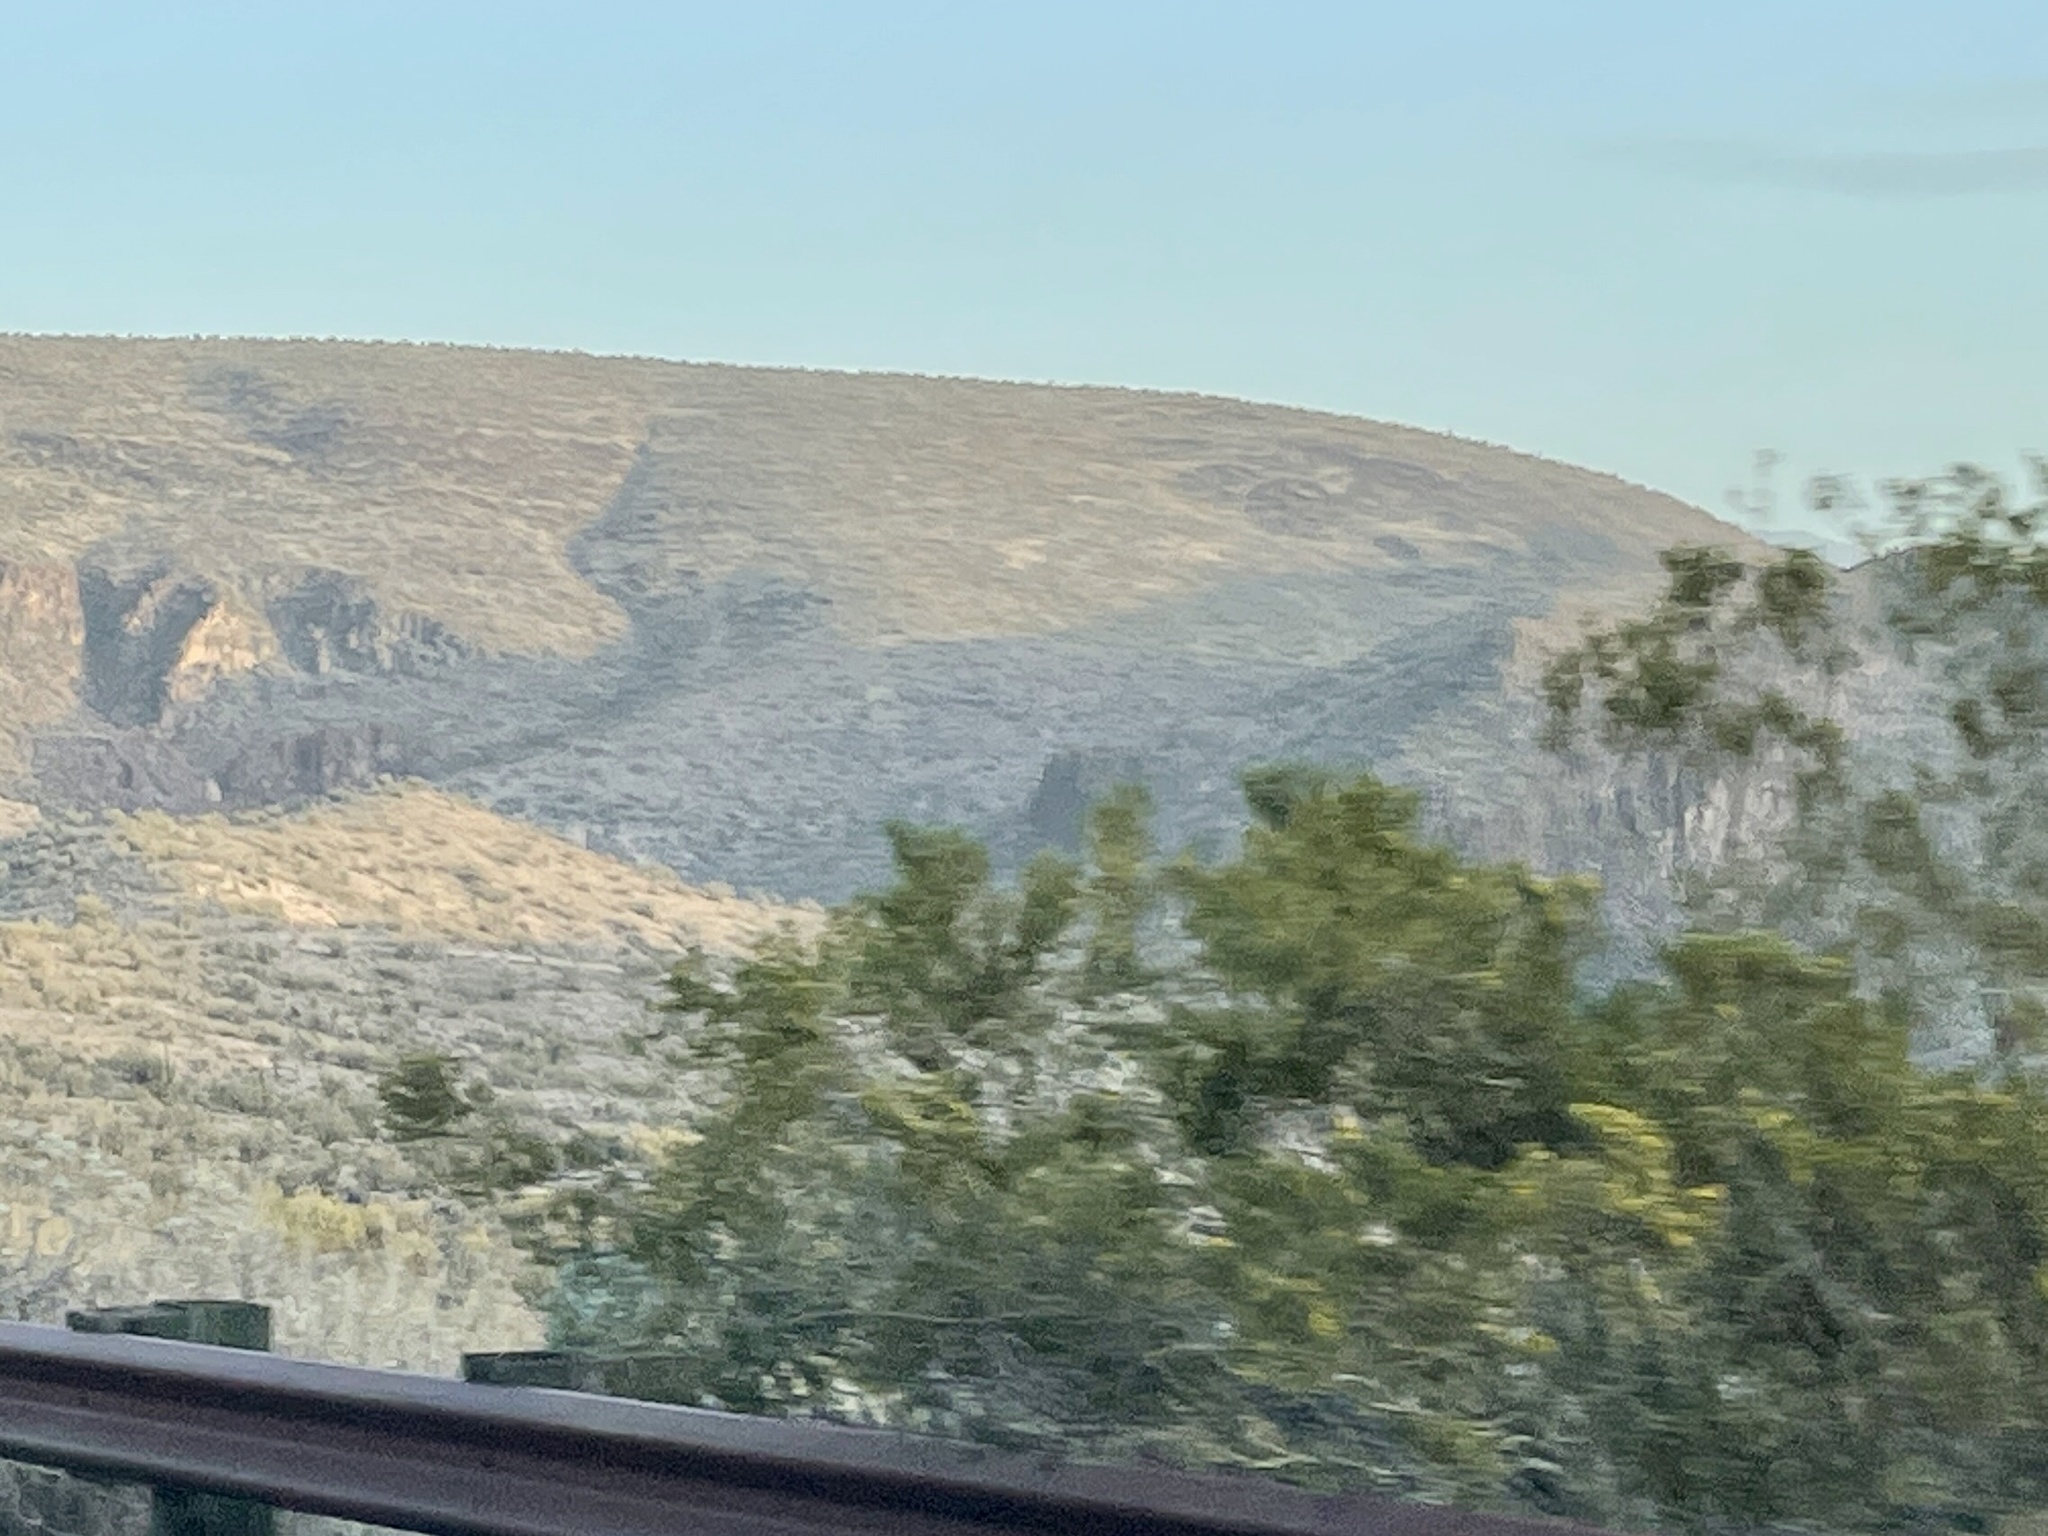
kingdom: Plantae
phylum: Tracheophyta
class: Magnoliopsida
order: Zygophyllales
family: Zygophyllaceae
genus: Larrea
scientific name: Larrea tridentata
